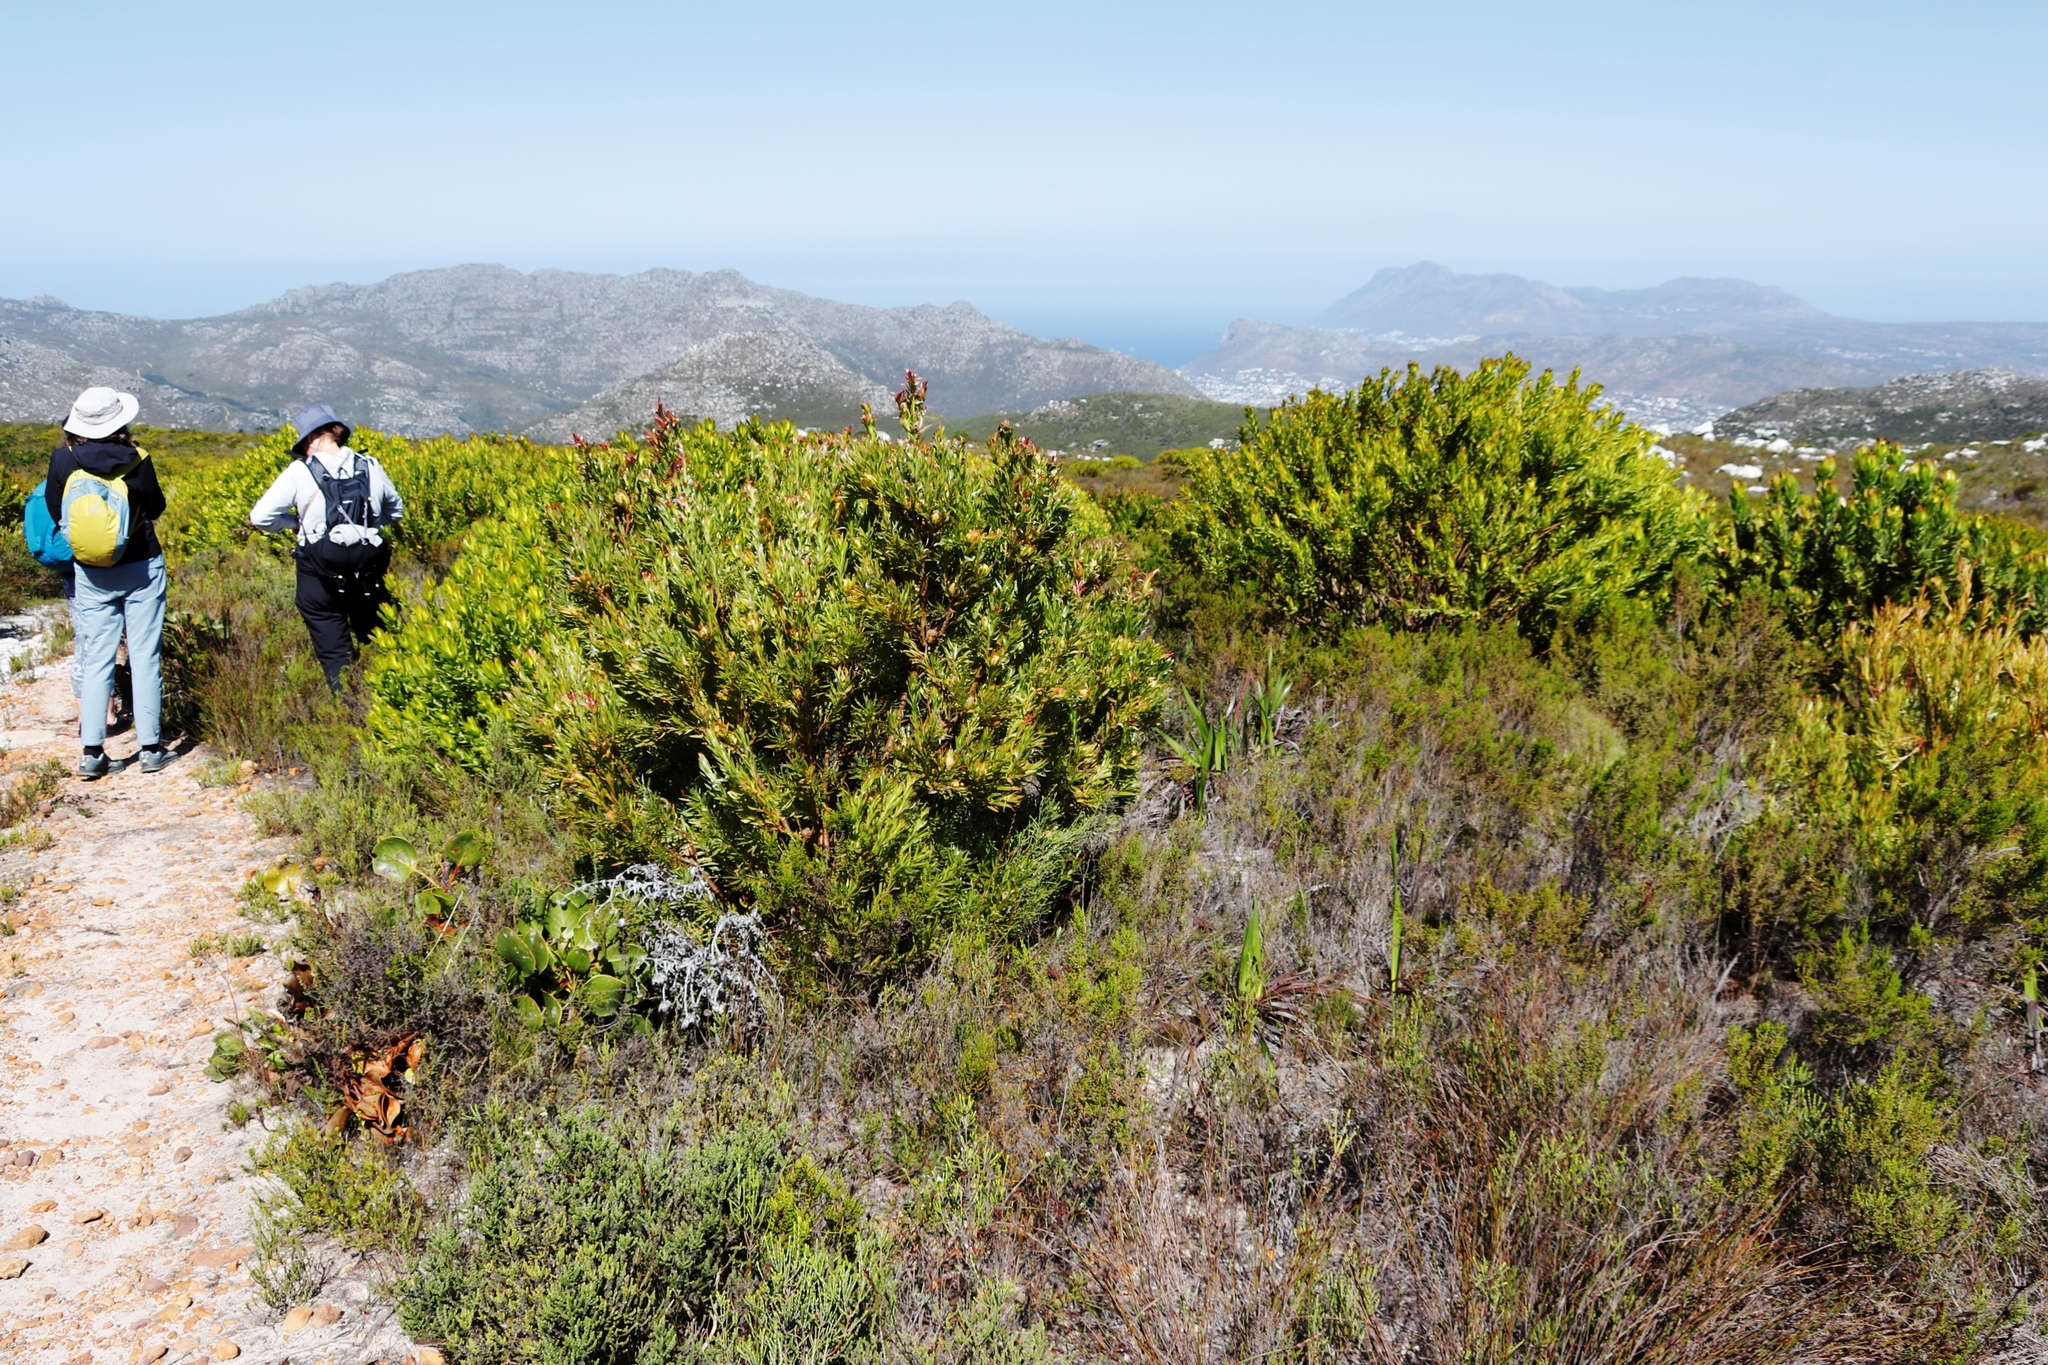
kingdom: Plantae
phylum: Tracheophyta
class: Magnoliopsida
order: Proteales
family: Proteaceae
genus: Leucadendron
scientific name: Leucadendron laureolum
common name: Golden sunshinebush
